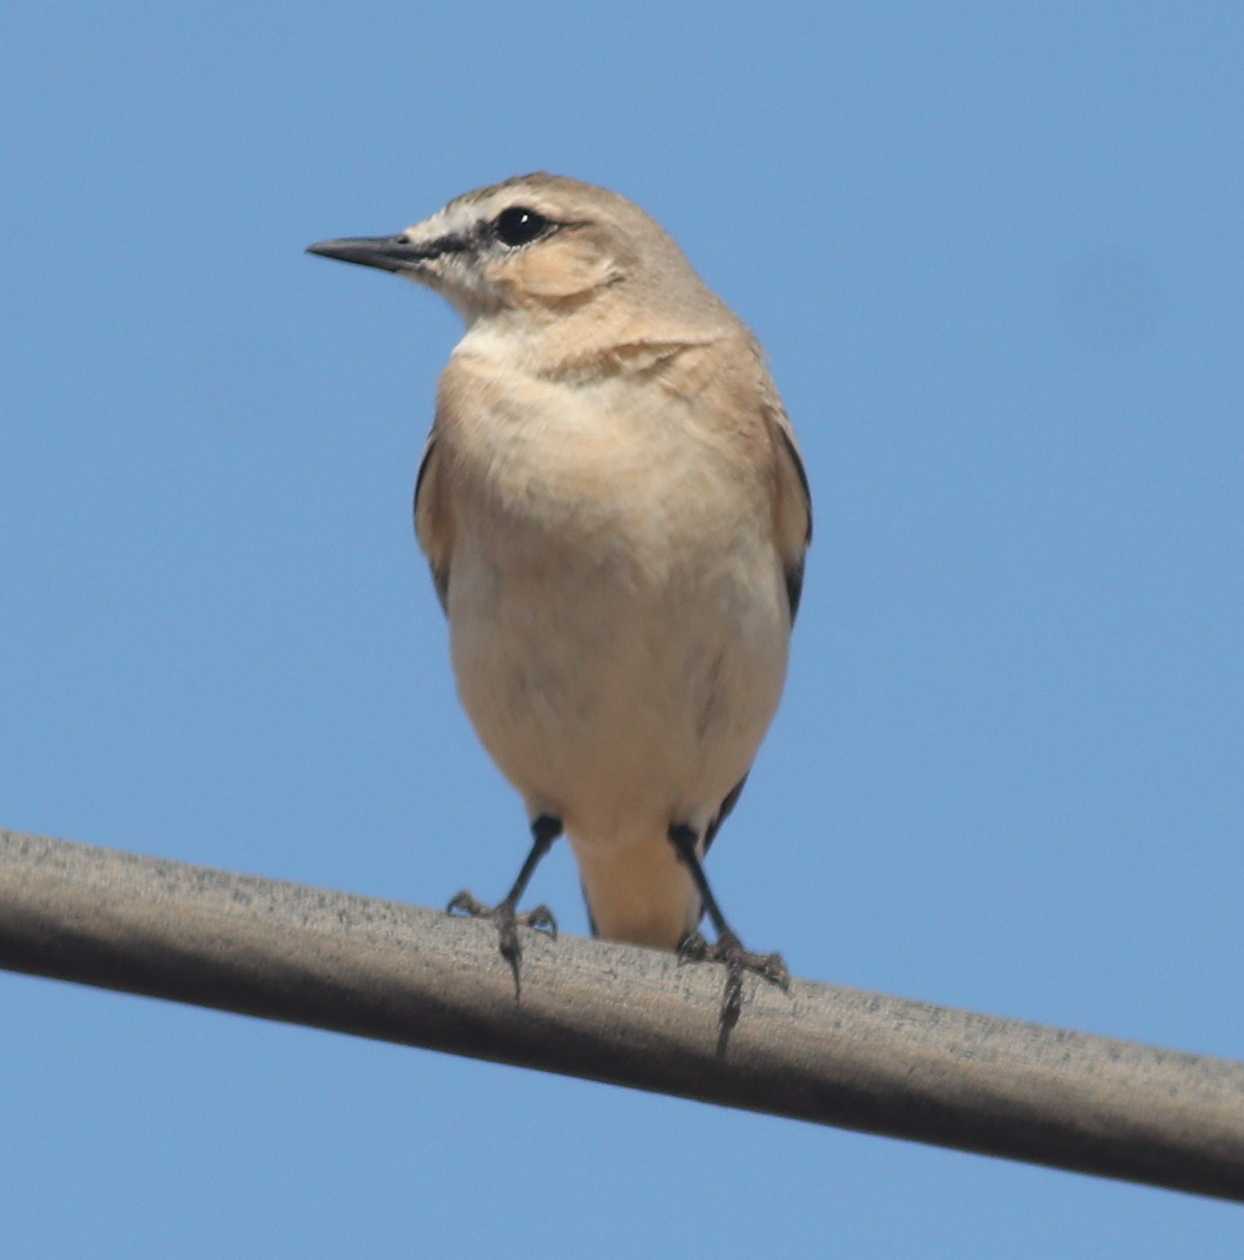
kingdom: Animalia
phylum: Chordata
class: Aves
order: Passeriformes
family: Muscicapidae
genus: Oenanthe
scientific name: Oenanthe isabellina
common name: Isabelline wheatear
